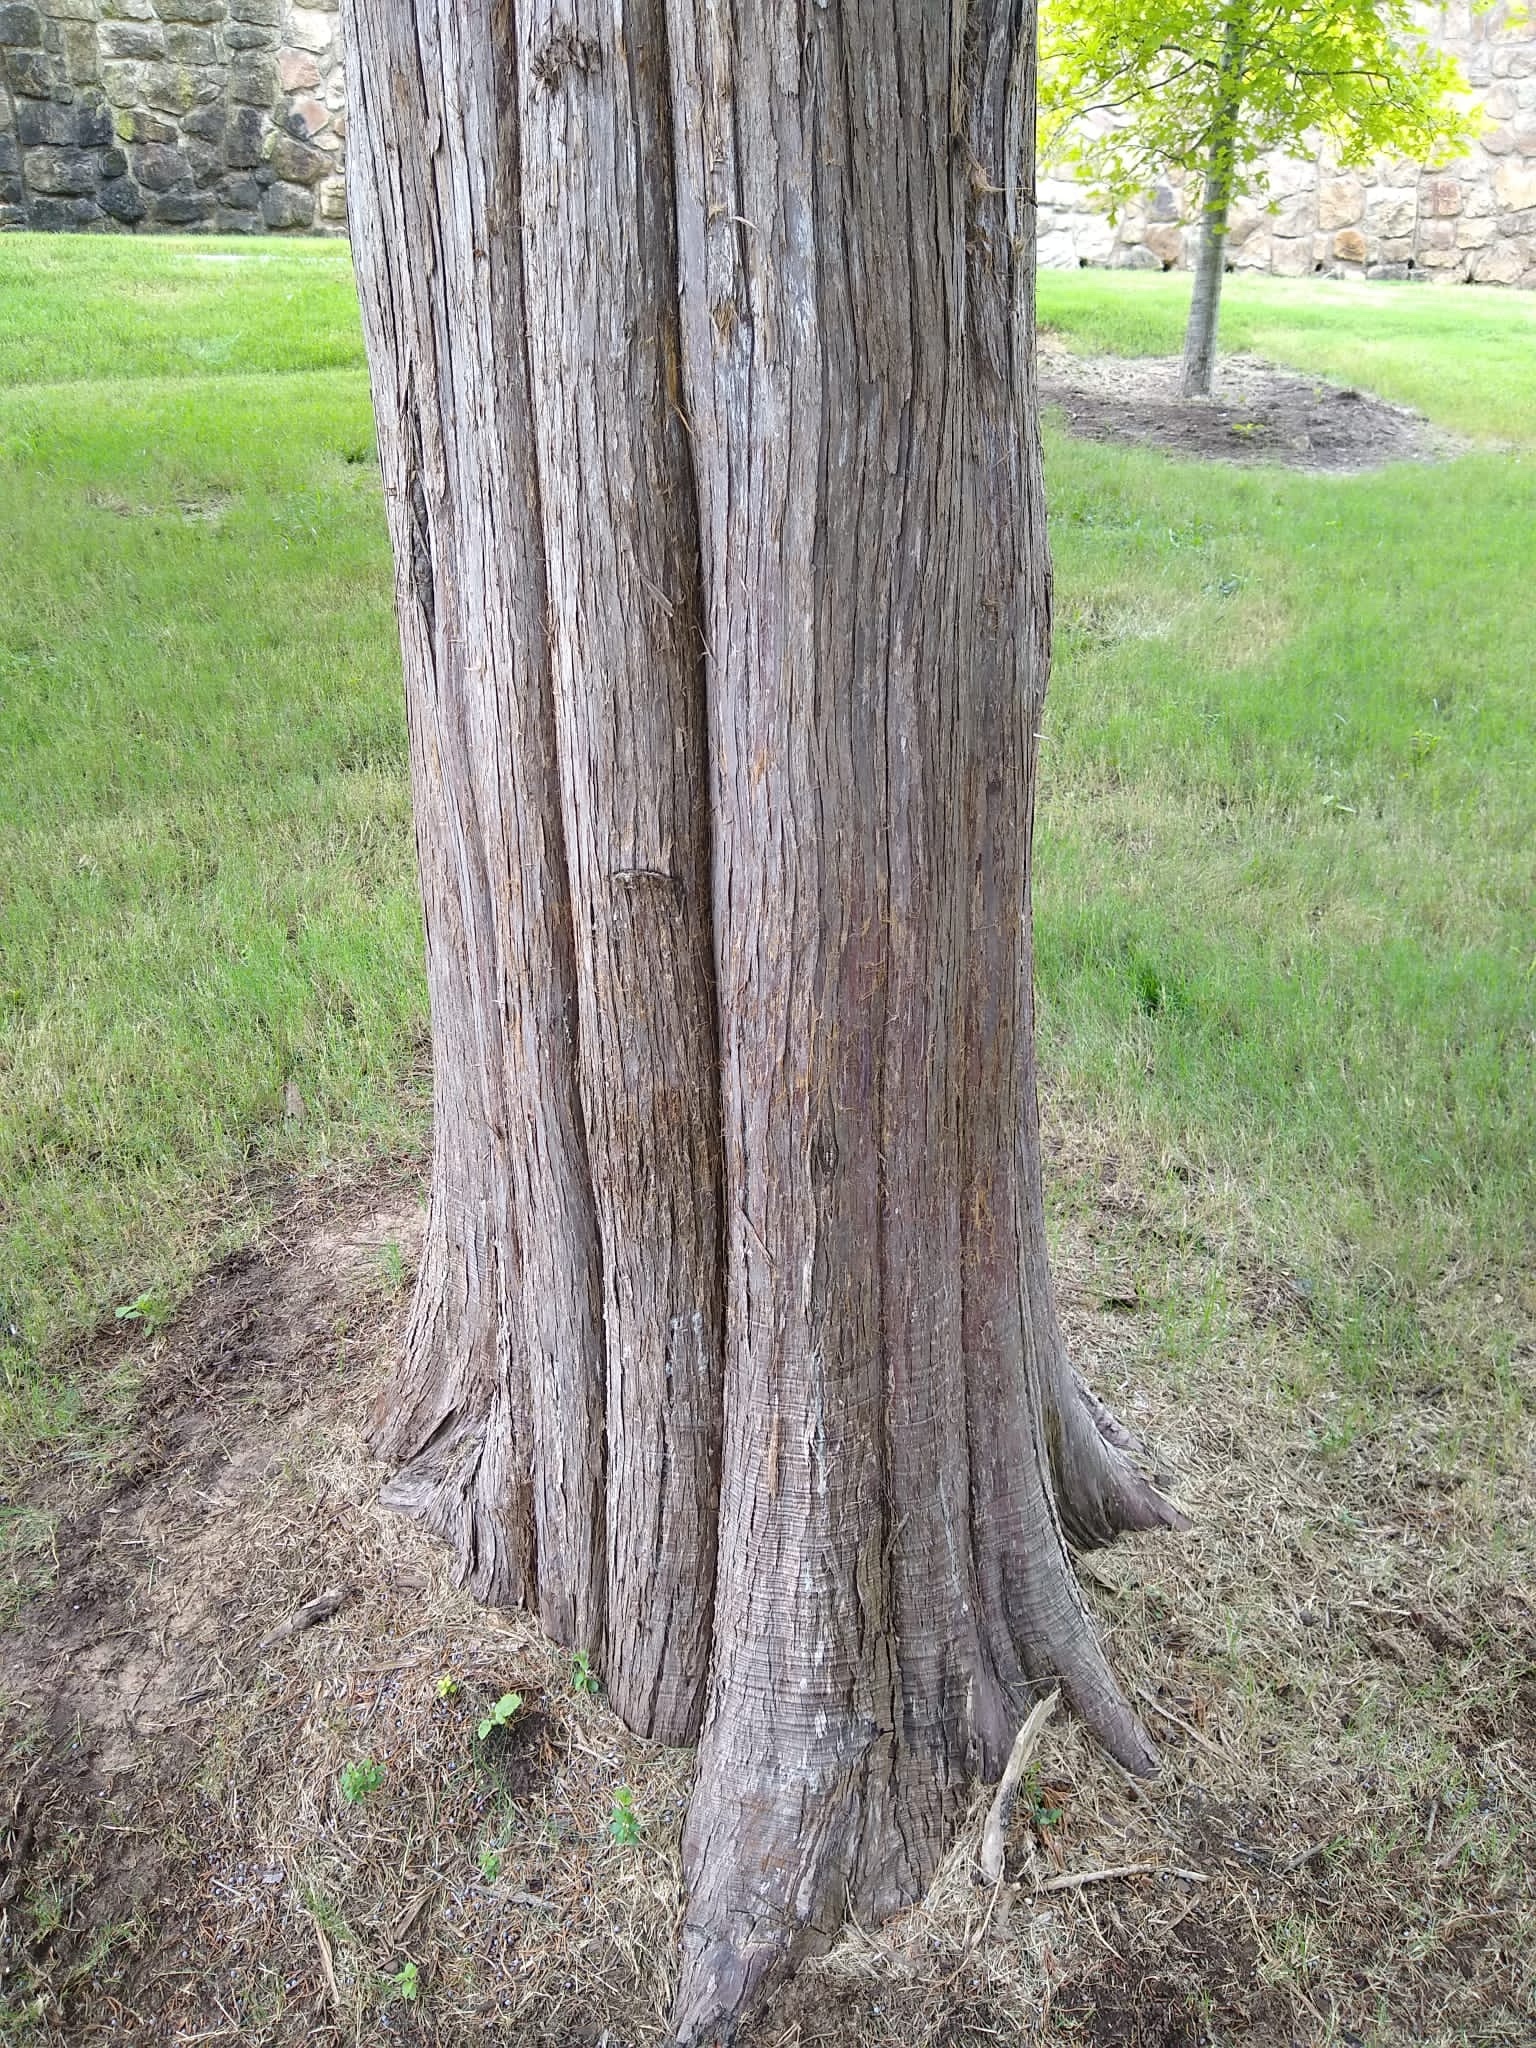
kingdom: Plantae
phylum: Tracheophyta
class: Pinopsida
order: Pinales
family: Cupressaceae
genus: Juniperus
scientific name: Juniperus virginiana
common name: Red juniper
